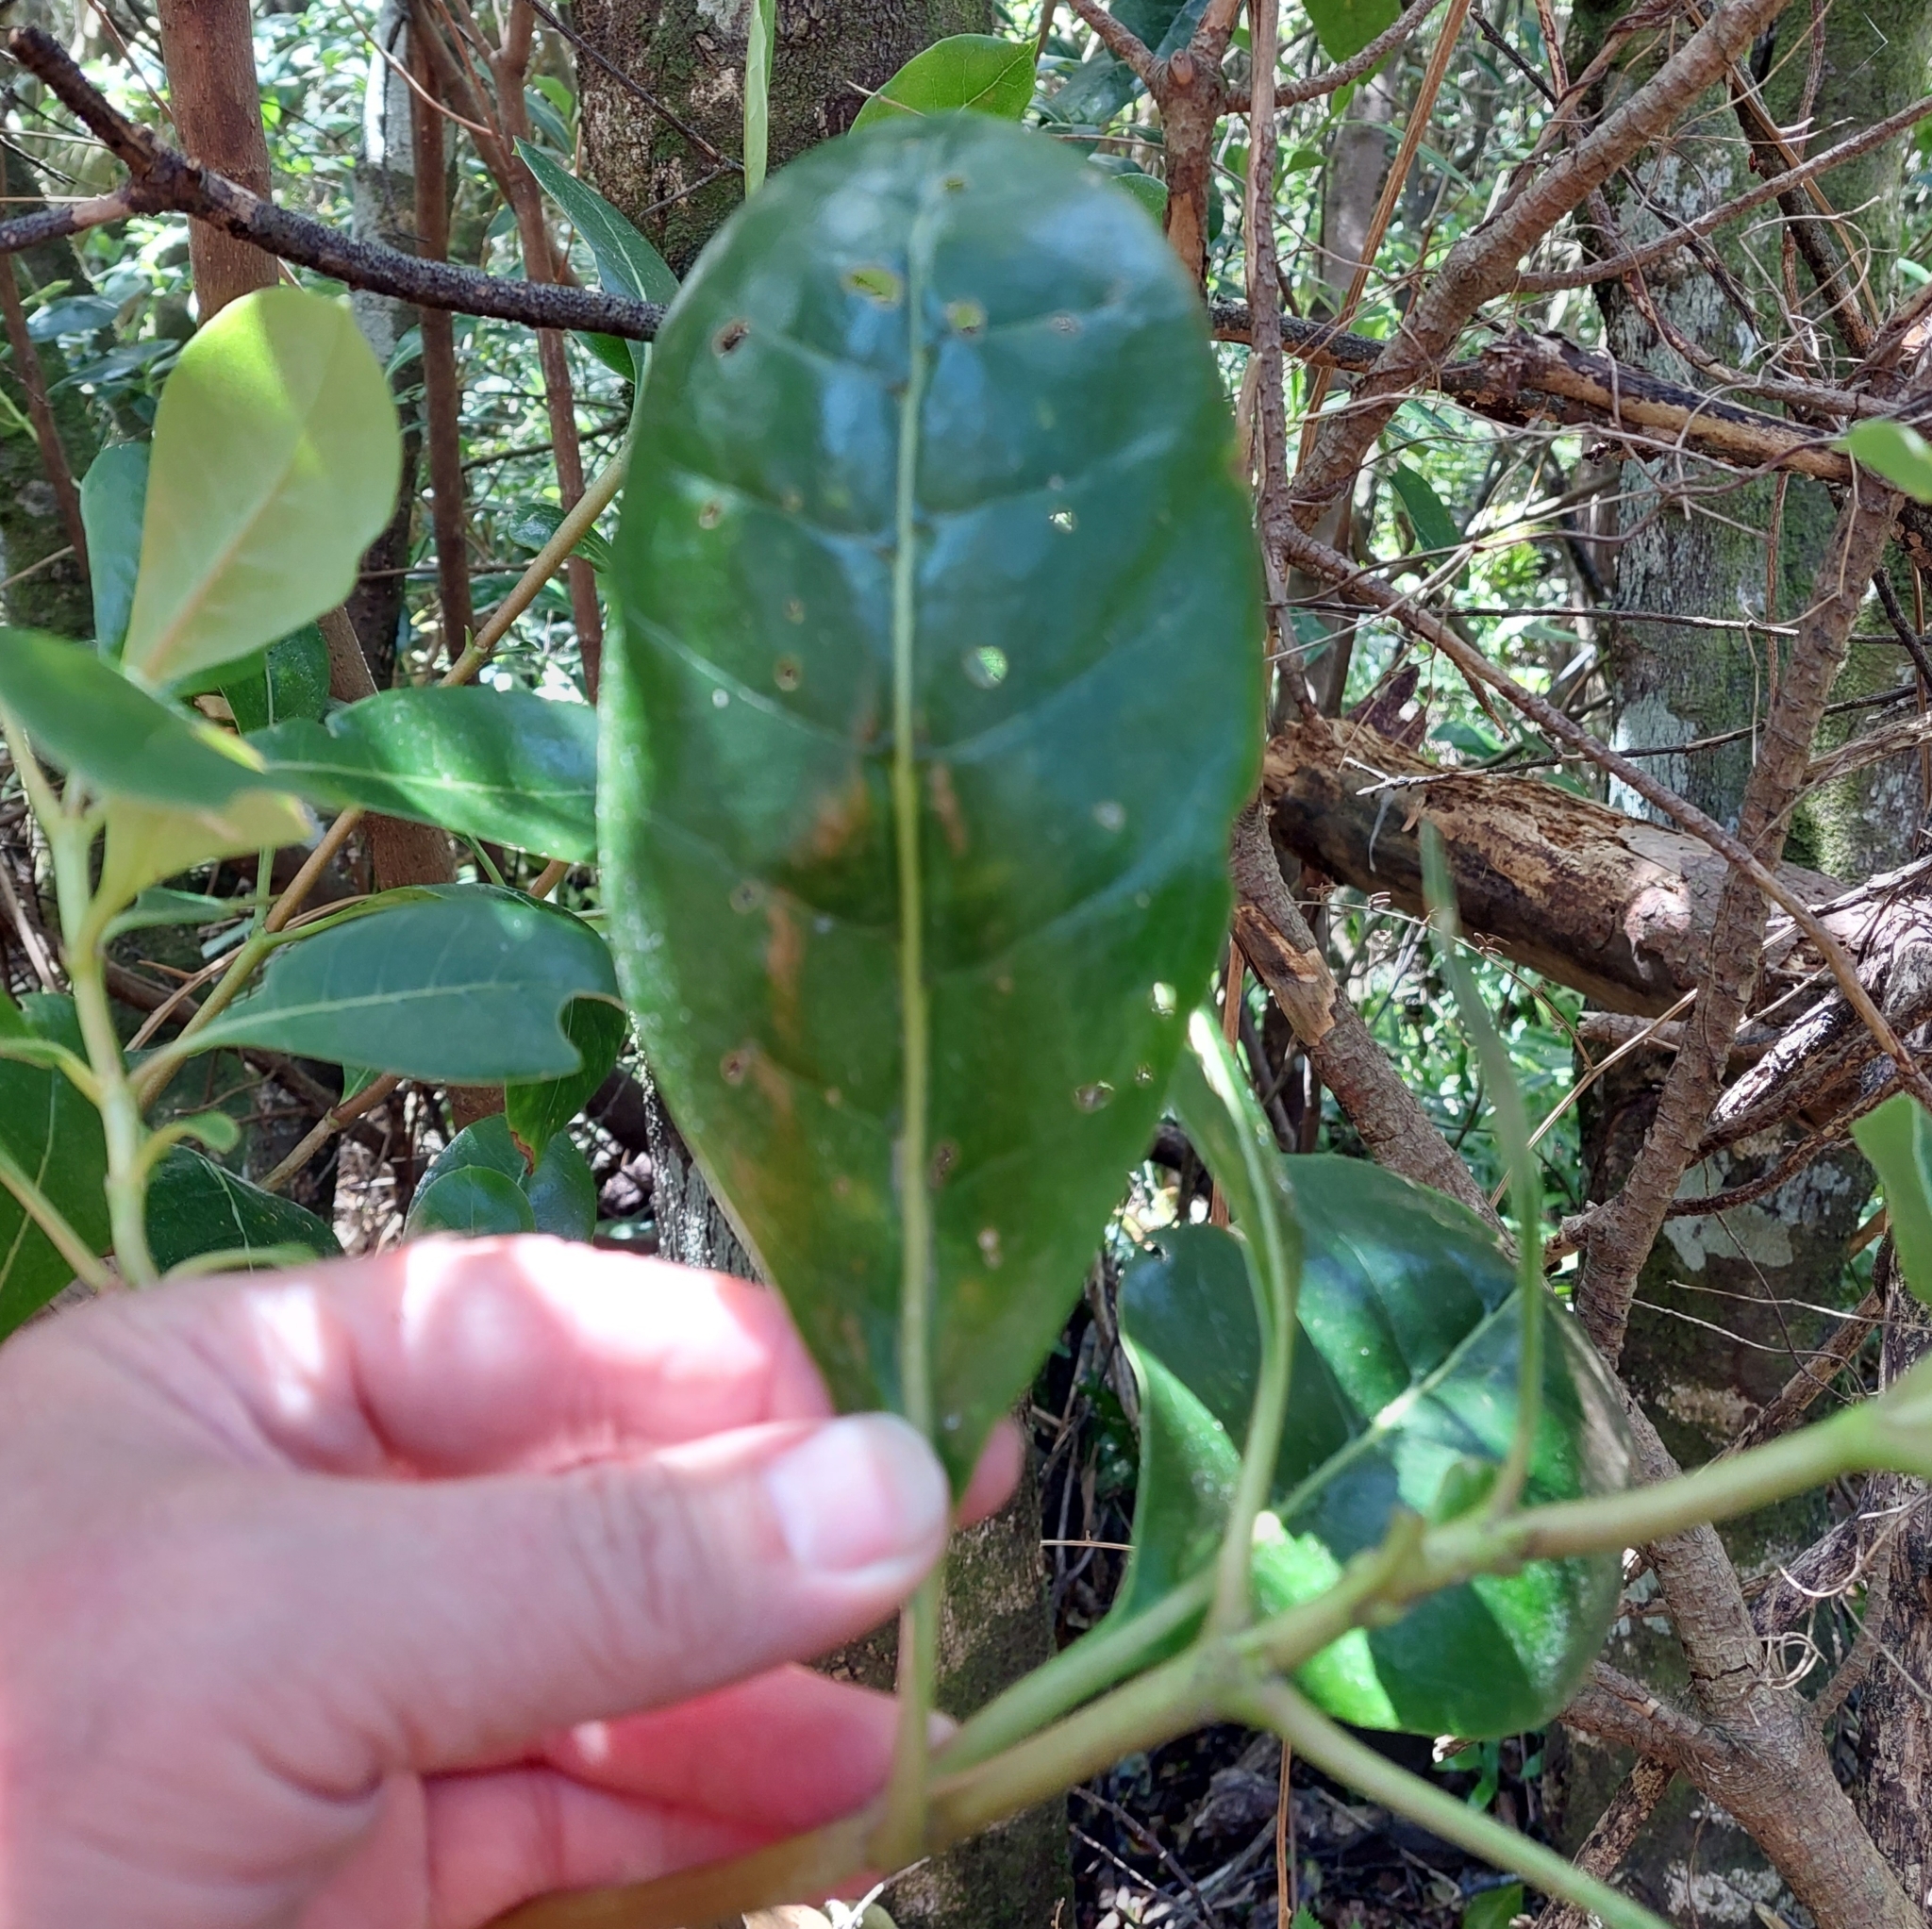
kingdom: Plantae
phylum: Tracheophyta
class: Magnoliopsida
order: Gentianales
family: Rubiaceae
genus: Coprosma
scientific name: Coprosma lucida
